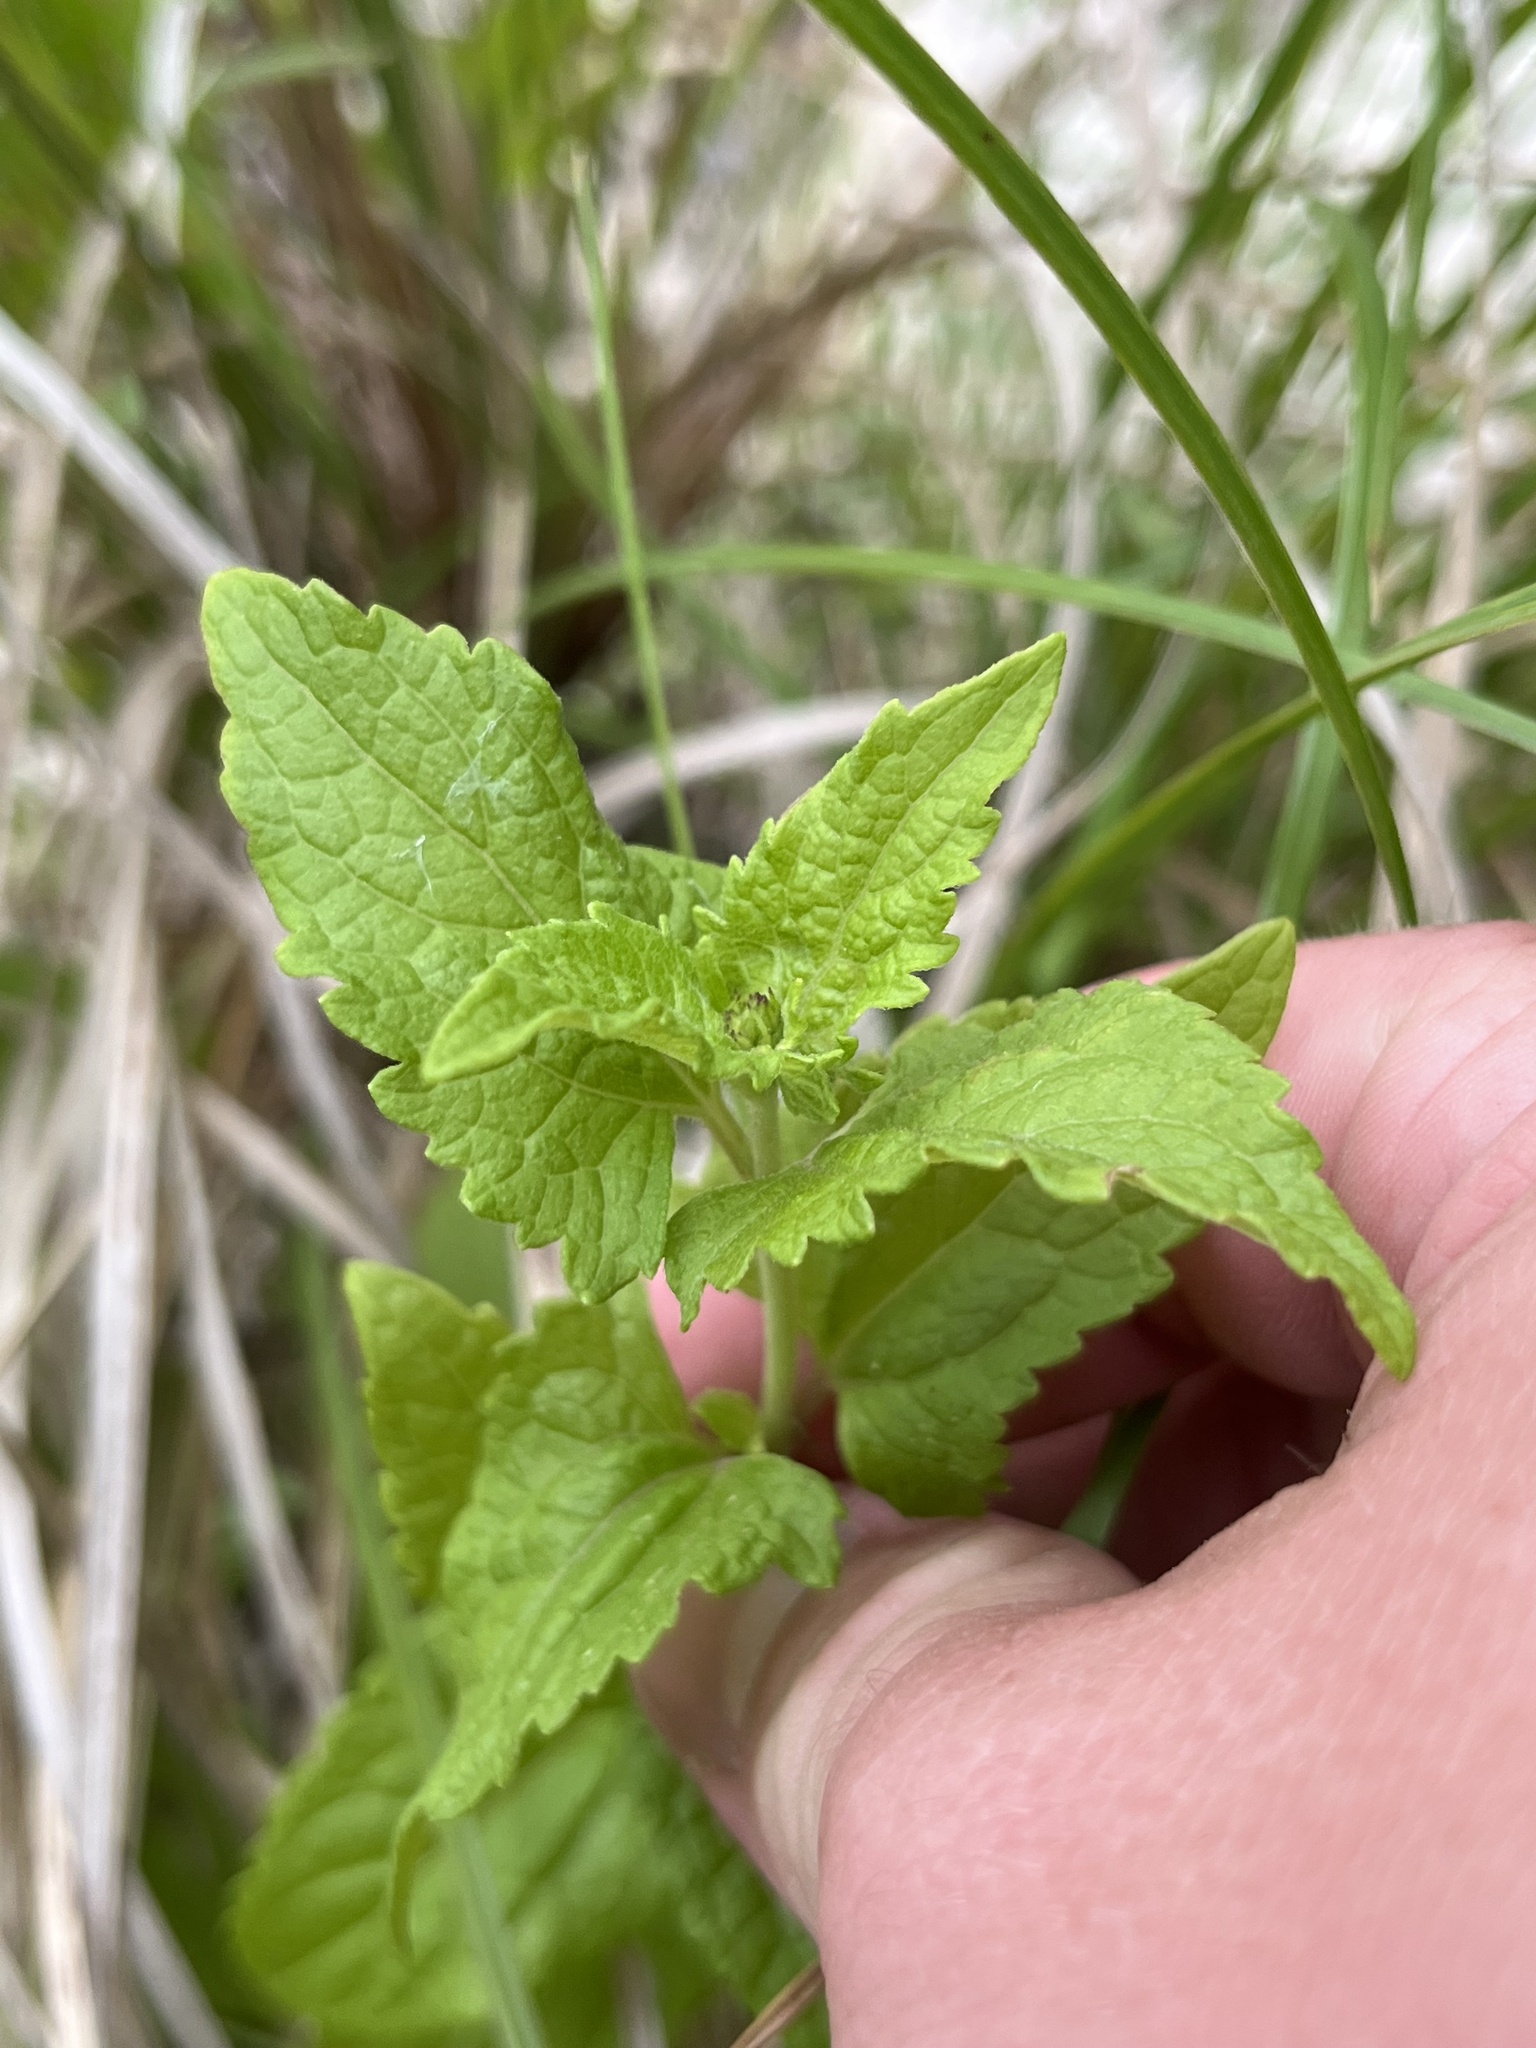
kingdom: Plantae
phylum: Tracheophyta
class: Magnoliopsida
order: Asterales
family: Asteraceae
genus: Conoclinium
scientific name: Conoclinium coelestinum
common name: Blue mistflower
